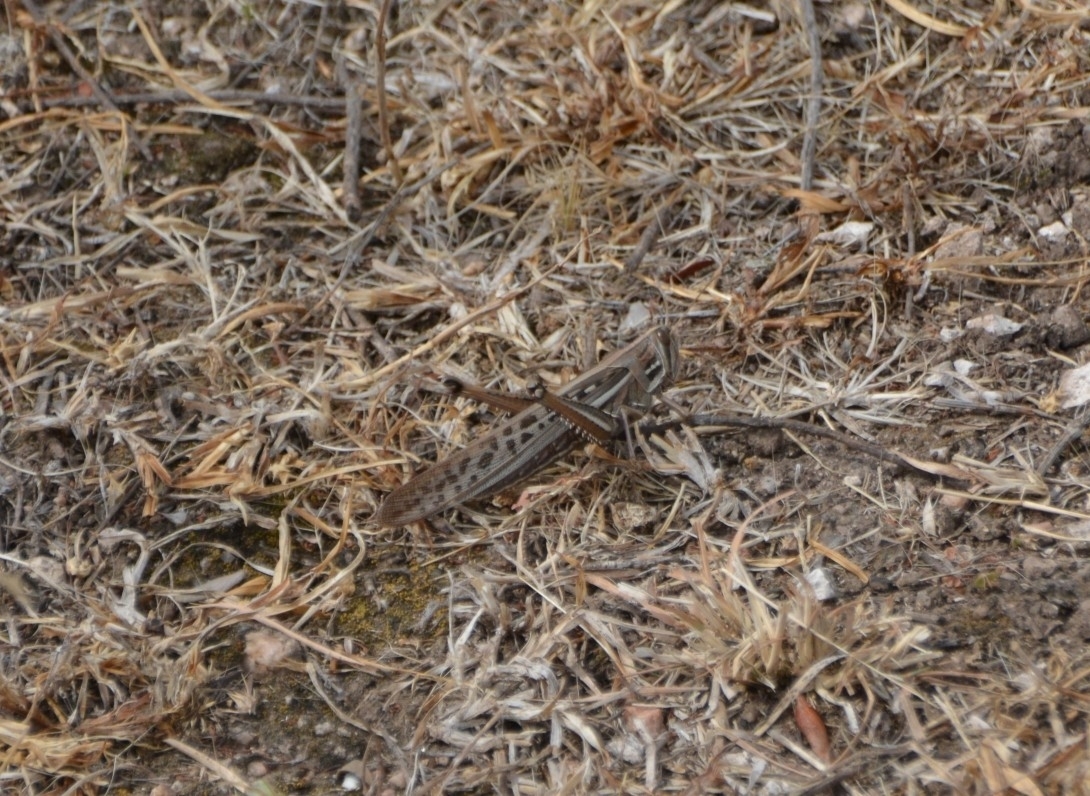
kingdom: Animalia
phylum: Arthropoda
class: Insecta
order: Orthoptera
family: Acrididae
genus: Schistocerca
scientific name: Schistocerca cancellata
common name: South american locust
